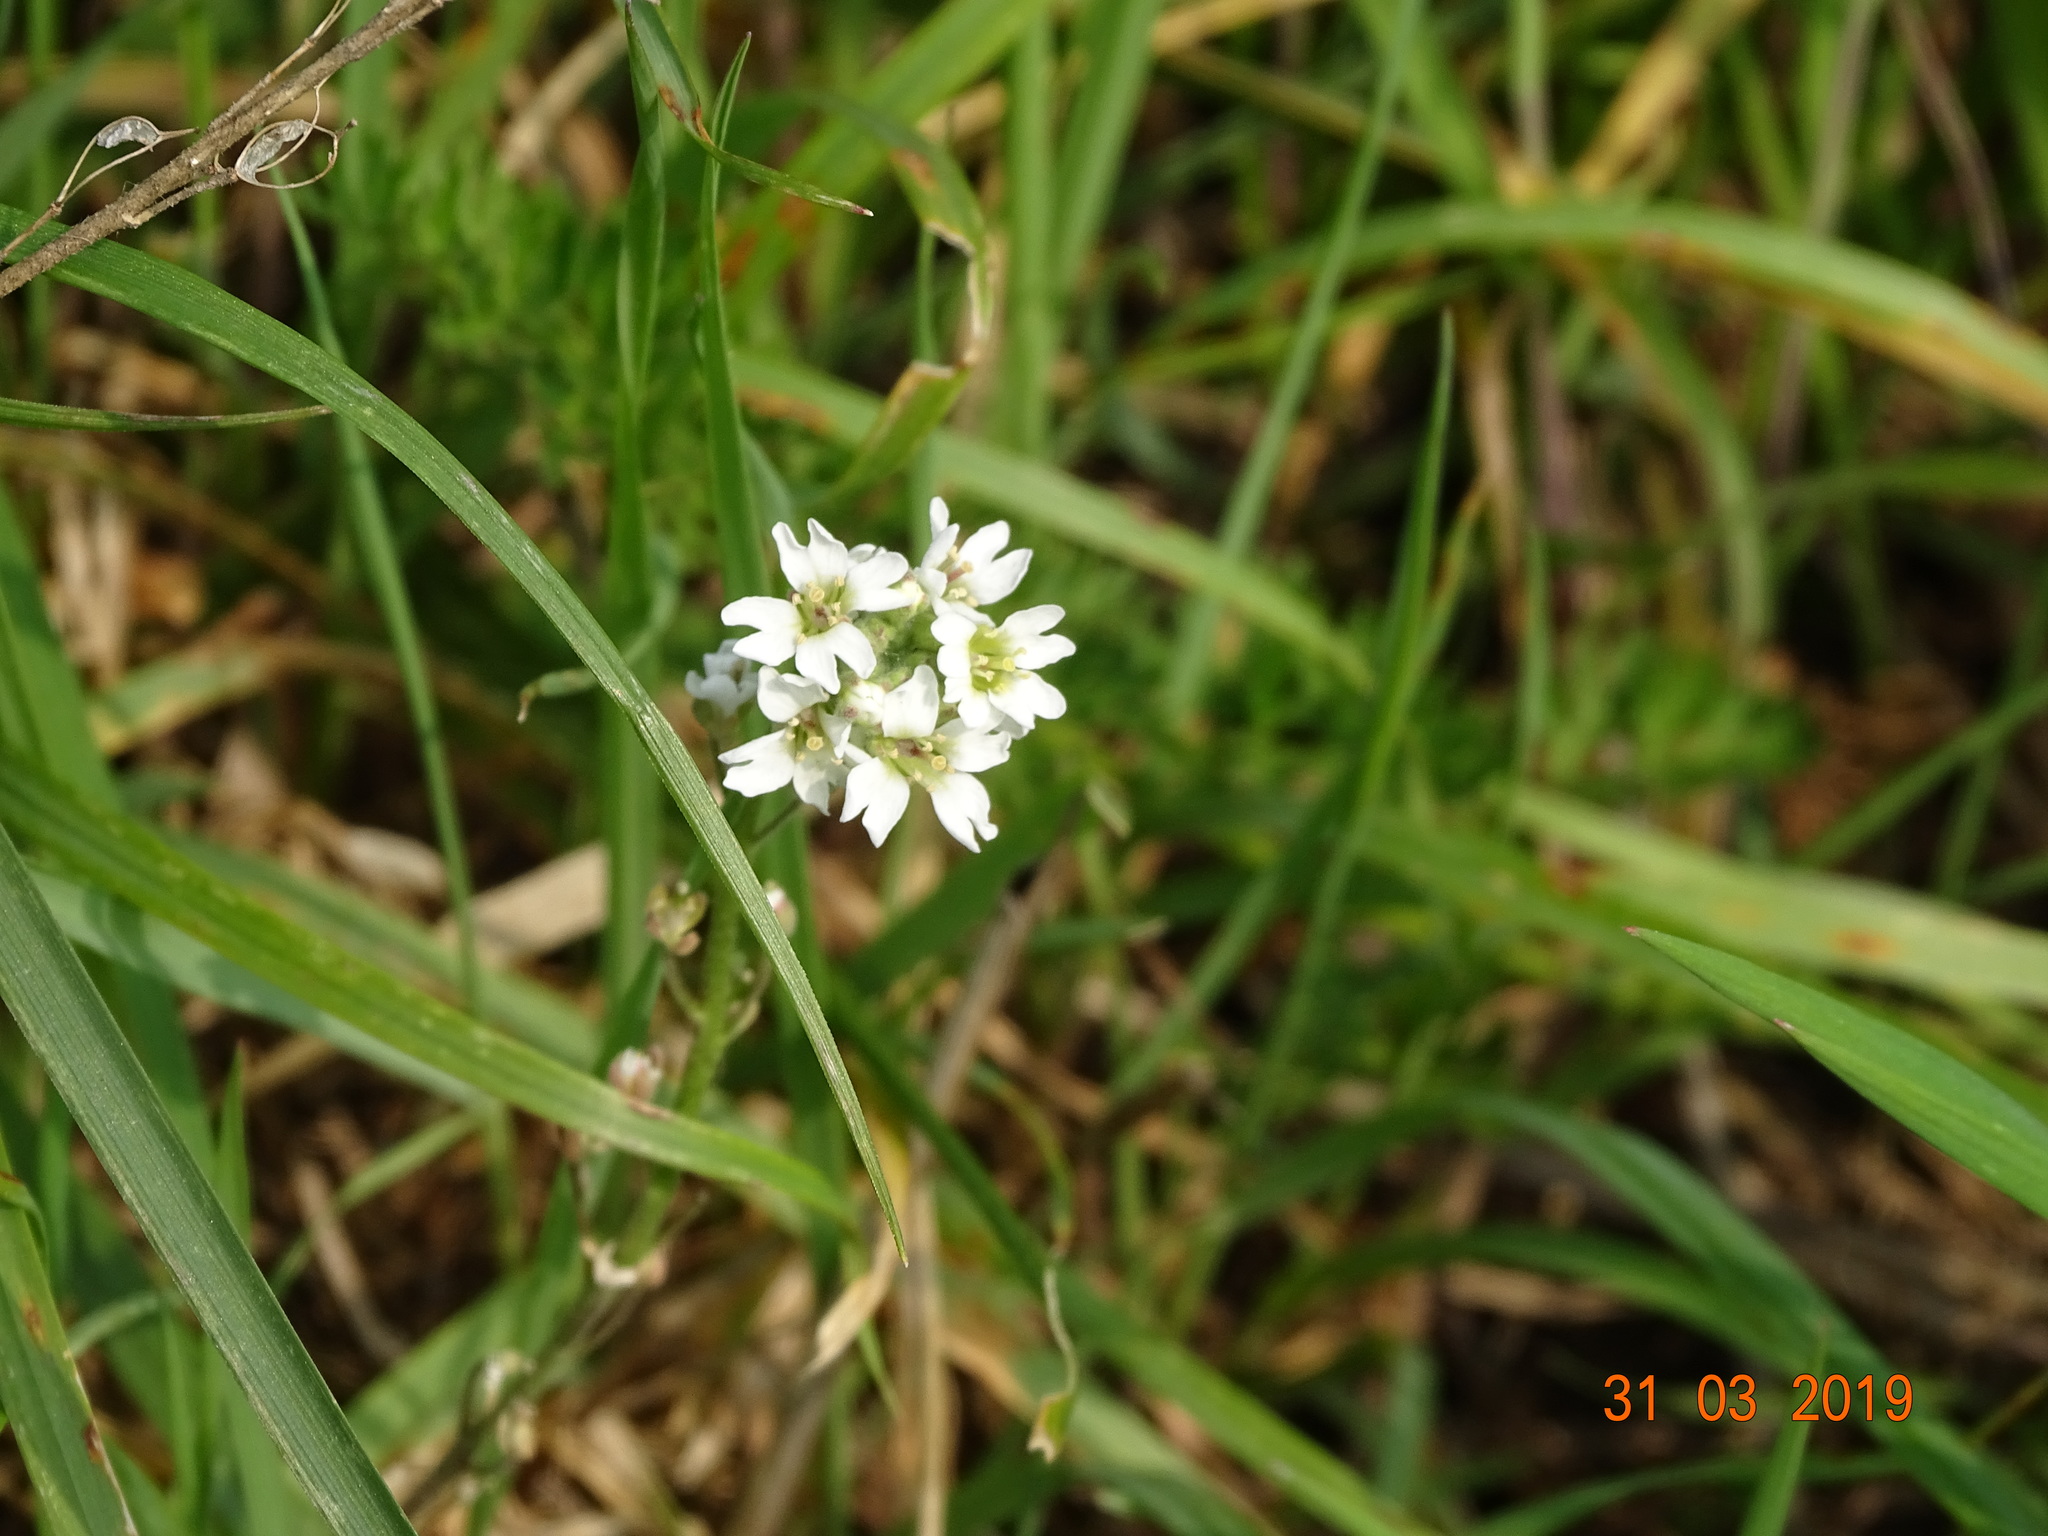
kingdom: Plantae
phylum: Tracheophyta
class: Magnoliopsida
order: Brassicales
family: Brassicaceae
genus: Berteroa
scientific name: Berteroa incana
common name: Hoary alison
